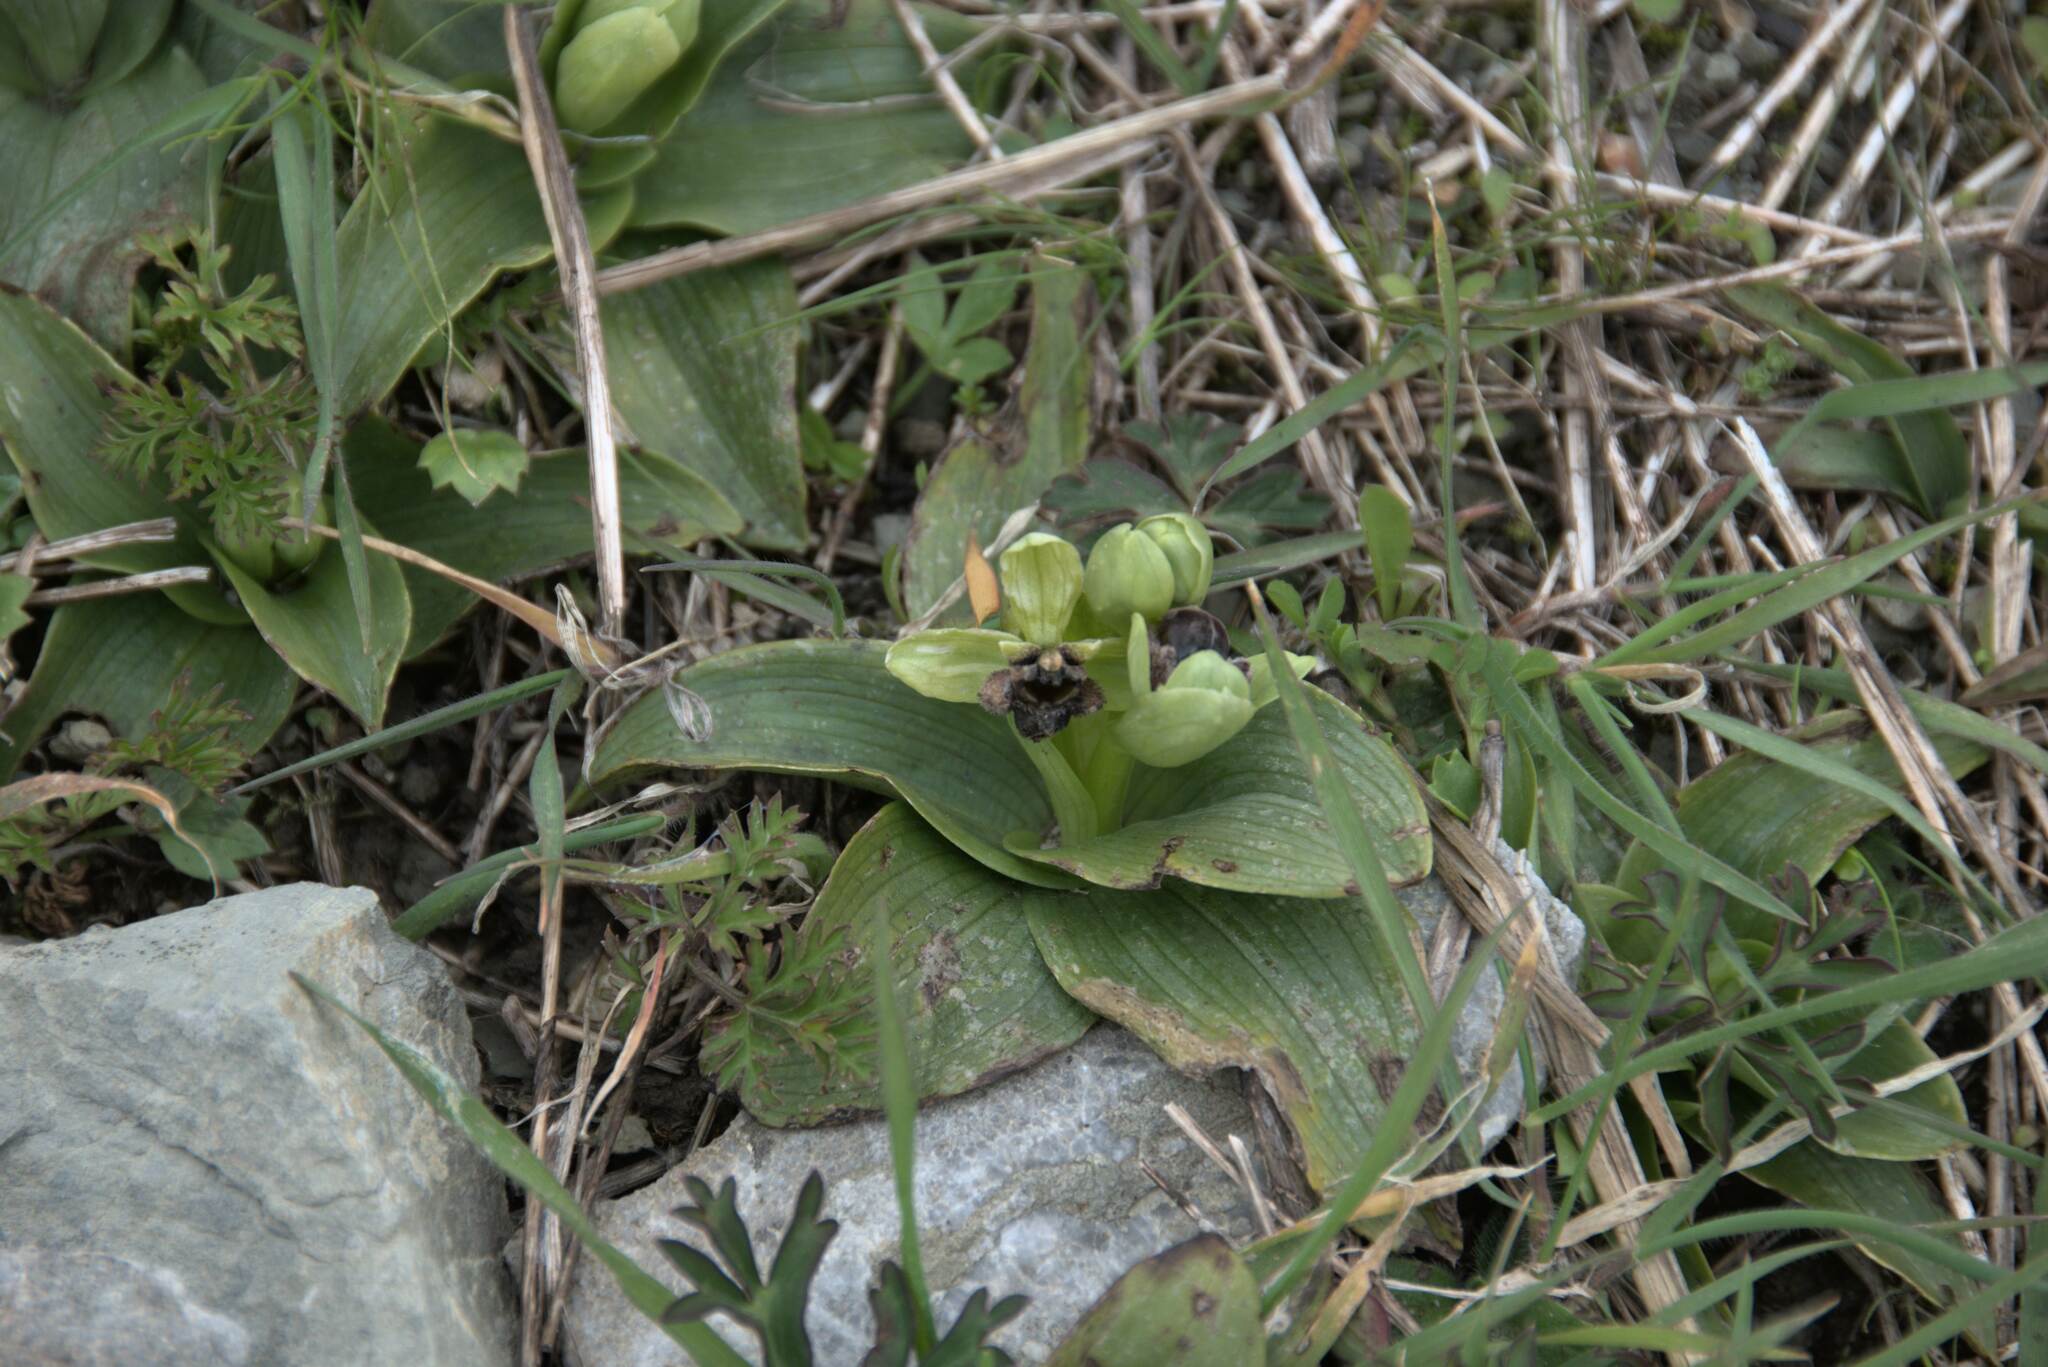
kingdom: Plantae
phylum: Tracheophyta
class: Liliopsida
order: Asparagales
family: Orchidaceae
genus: Ophrys
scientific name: Ophrys bombyliflora
